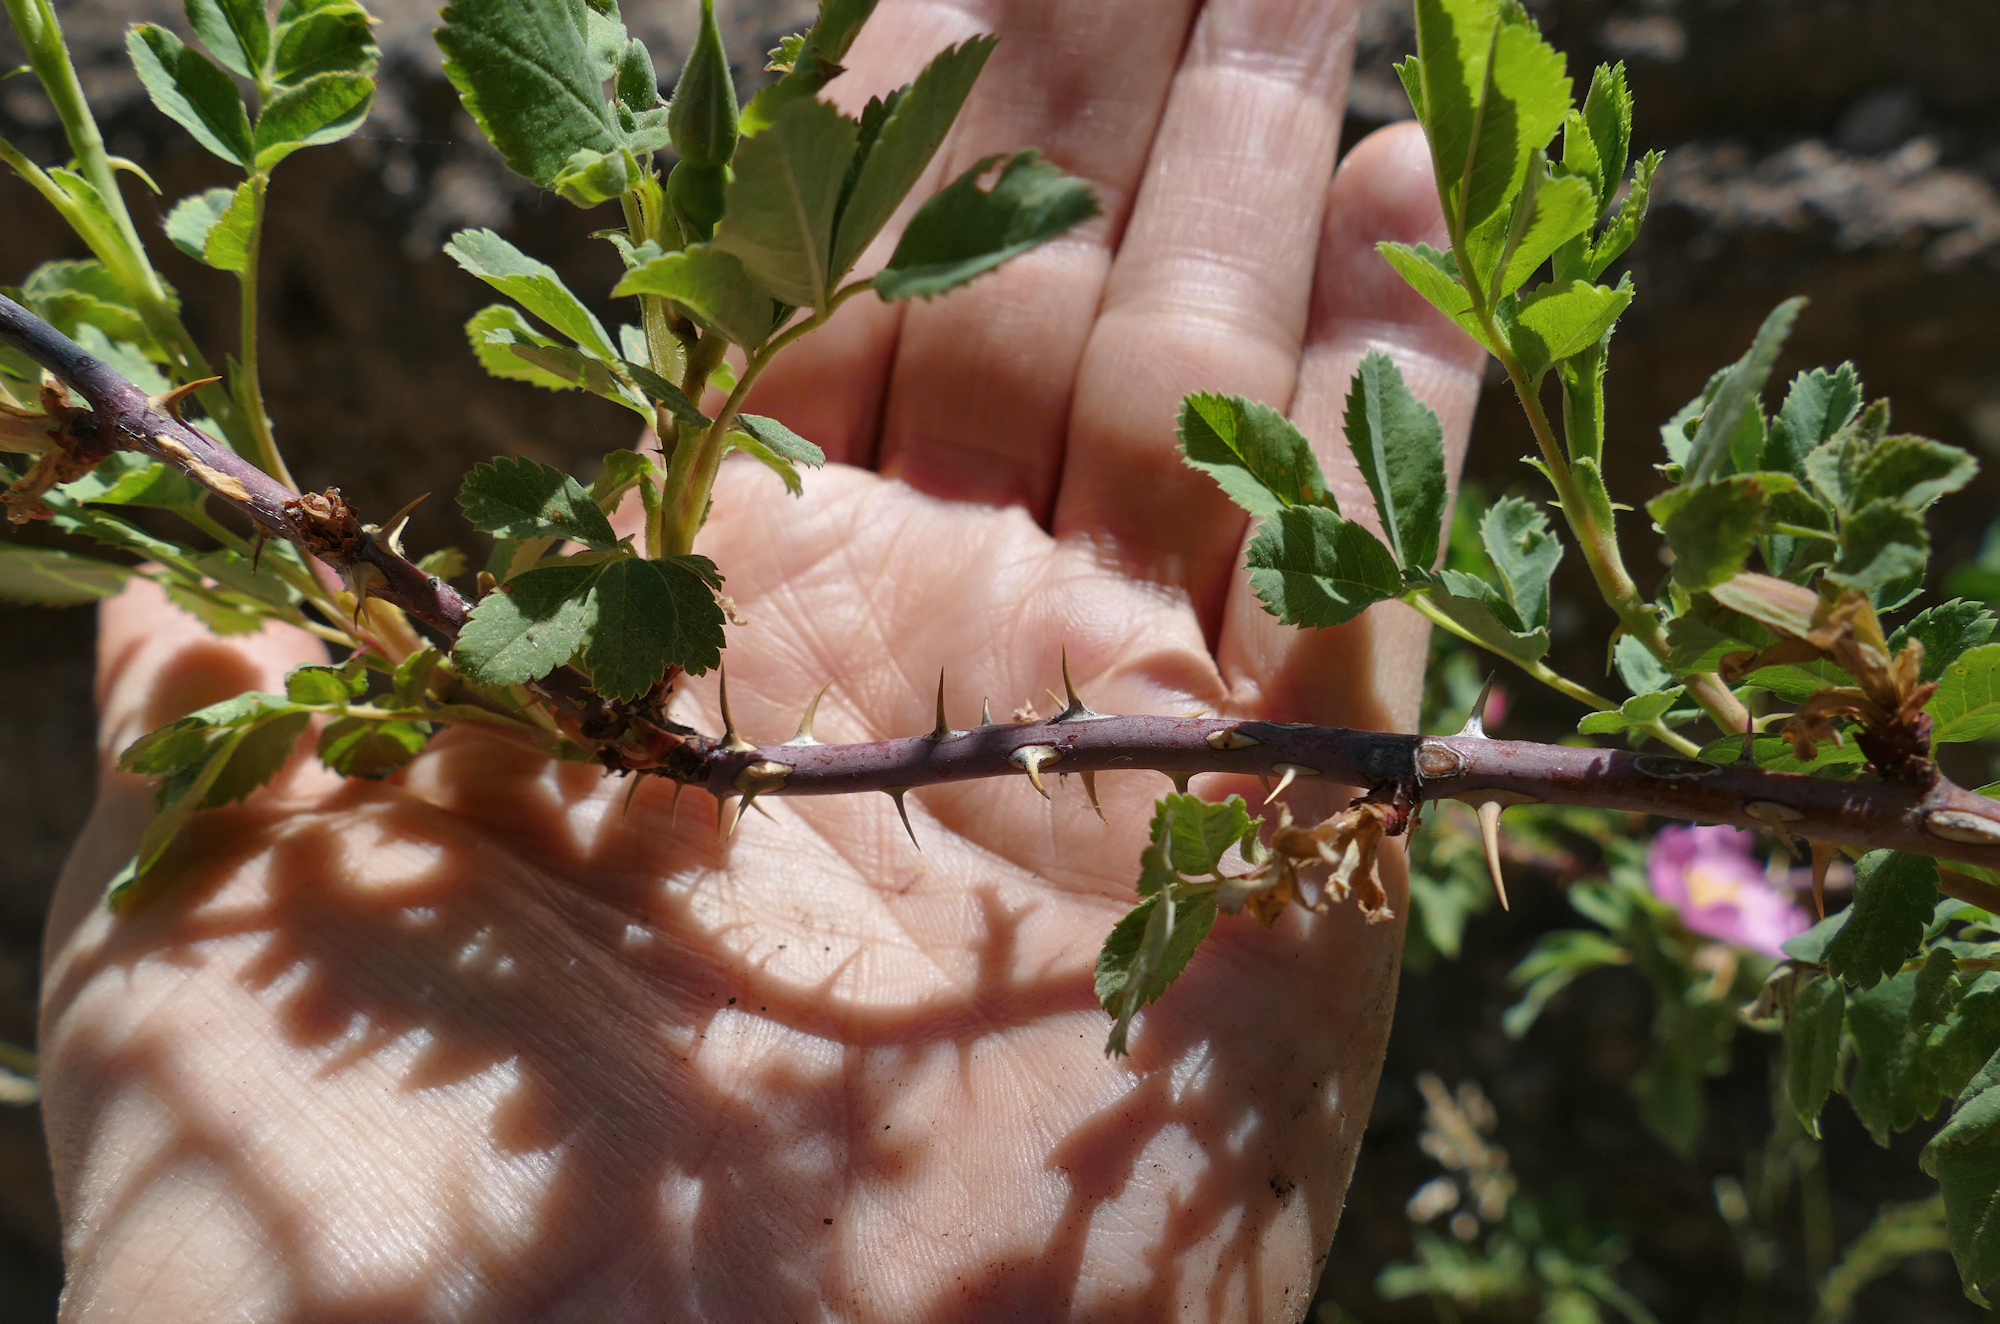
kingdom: Plantae
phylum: Tracheophyta
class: Magnoliopsida
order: Rosales
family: Rosaceae
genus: Rosa
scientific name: Rosa woodsii
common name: Woods's rose
